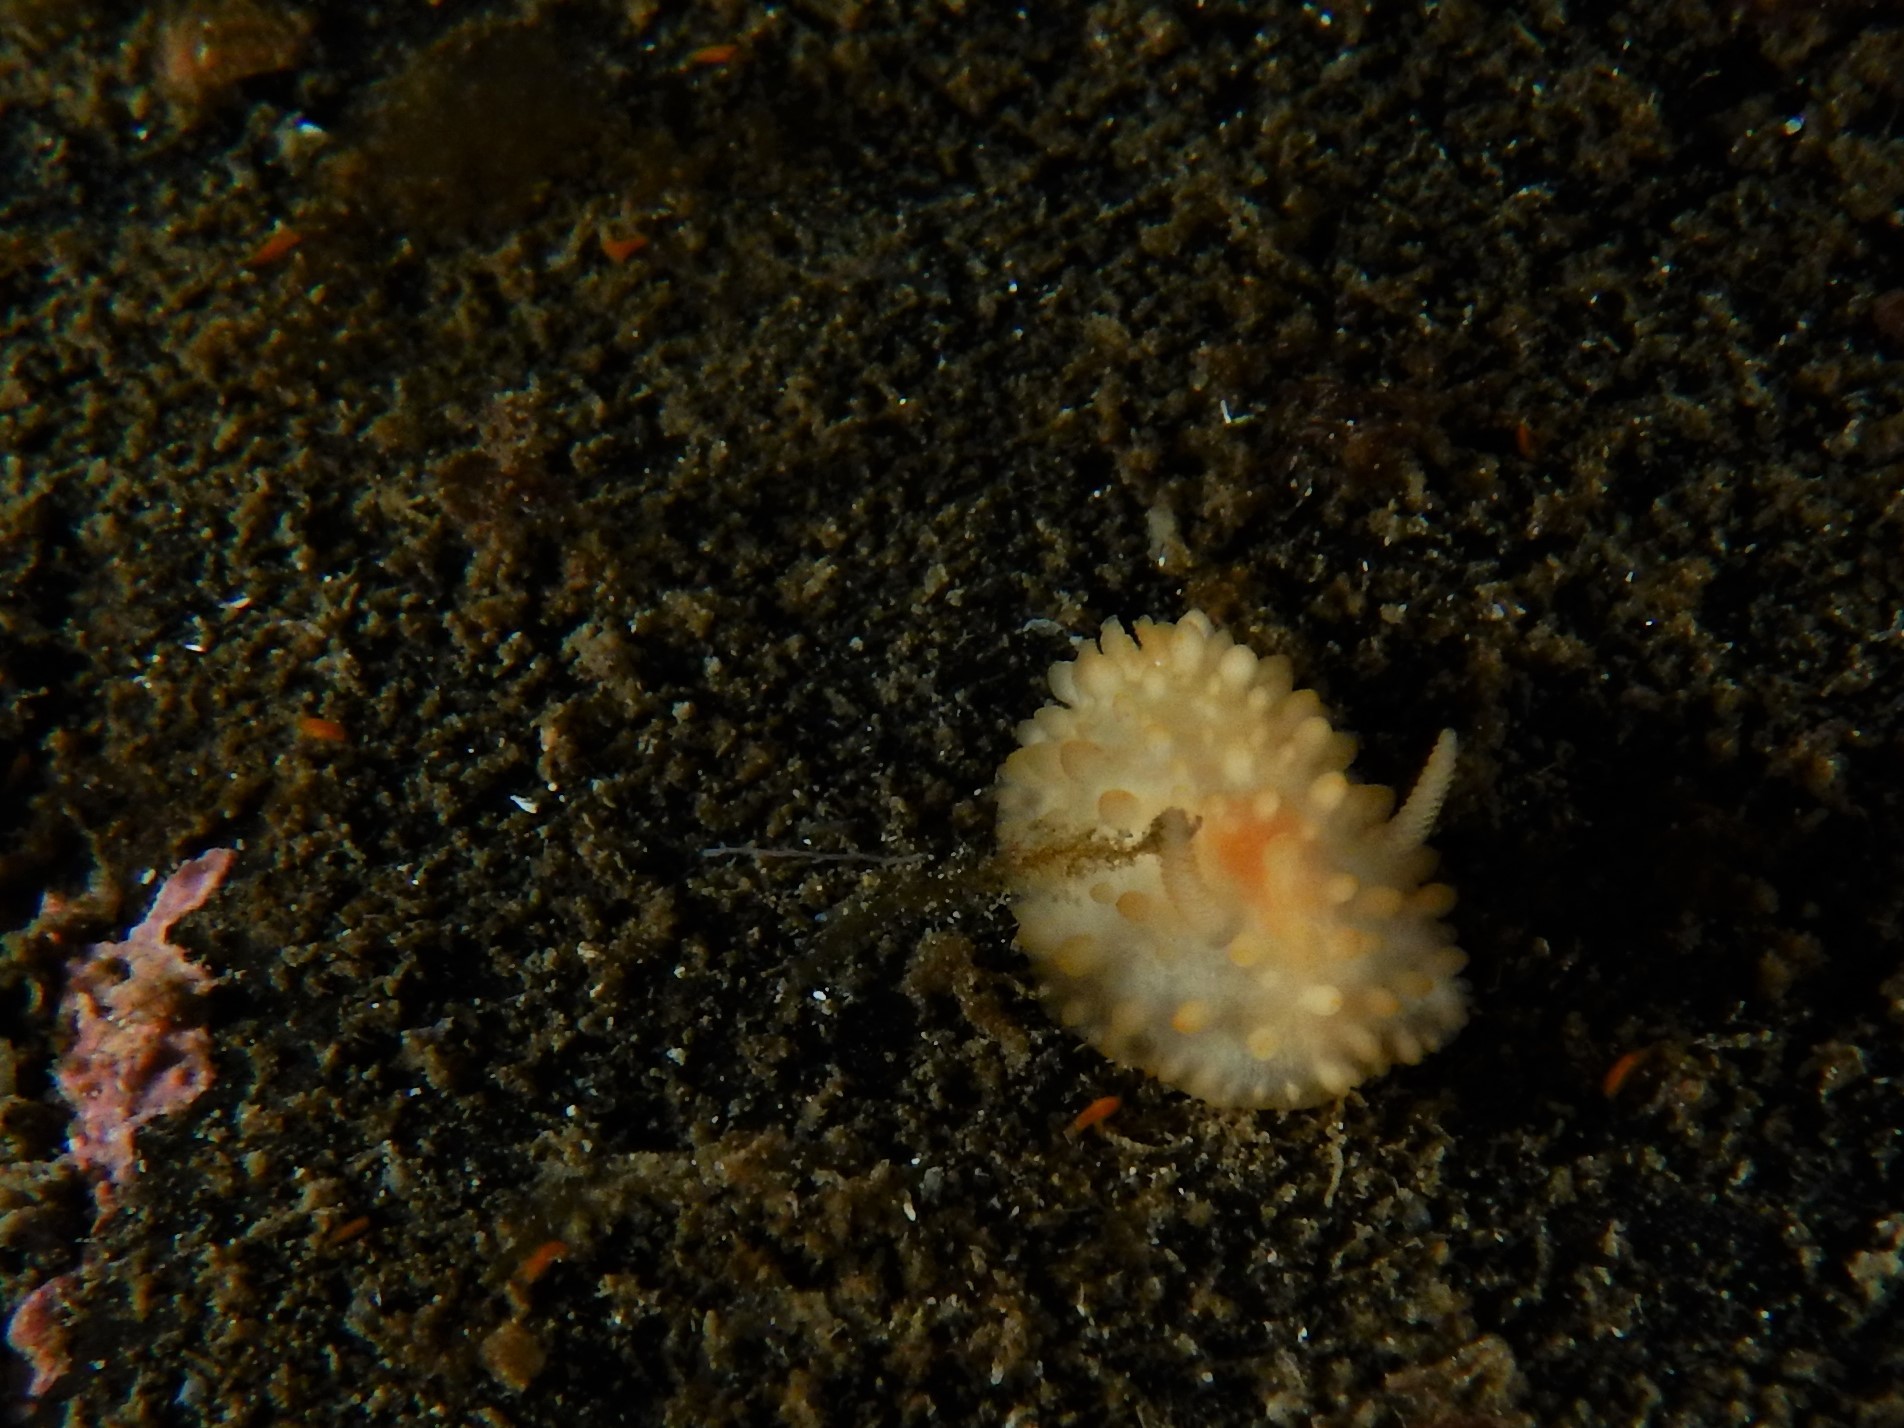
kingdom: Animalia
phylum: Mollusca
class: Gastropoda
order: Nudibranchia
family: Onchidorididae
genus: Adalaria
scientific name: Adalaria loveni
